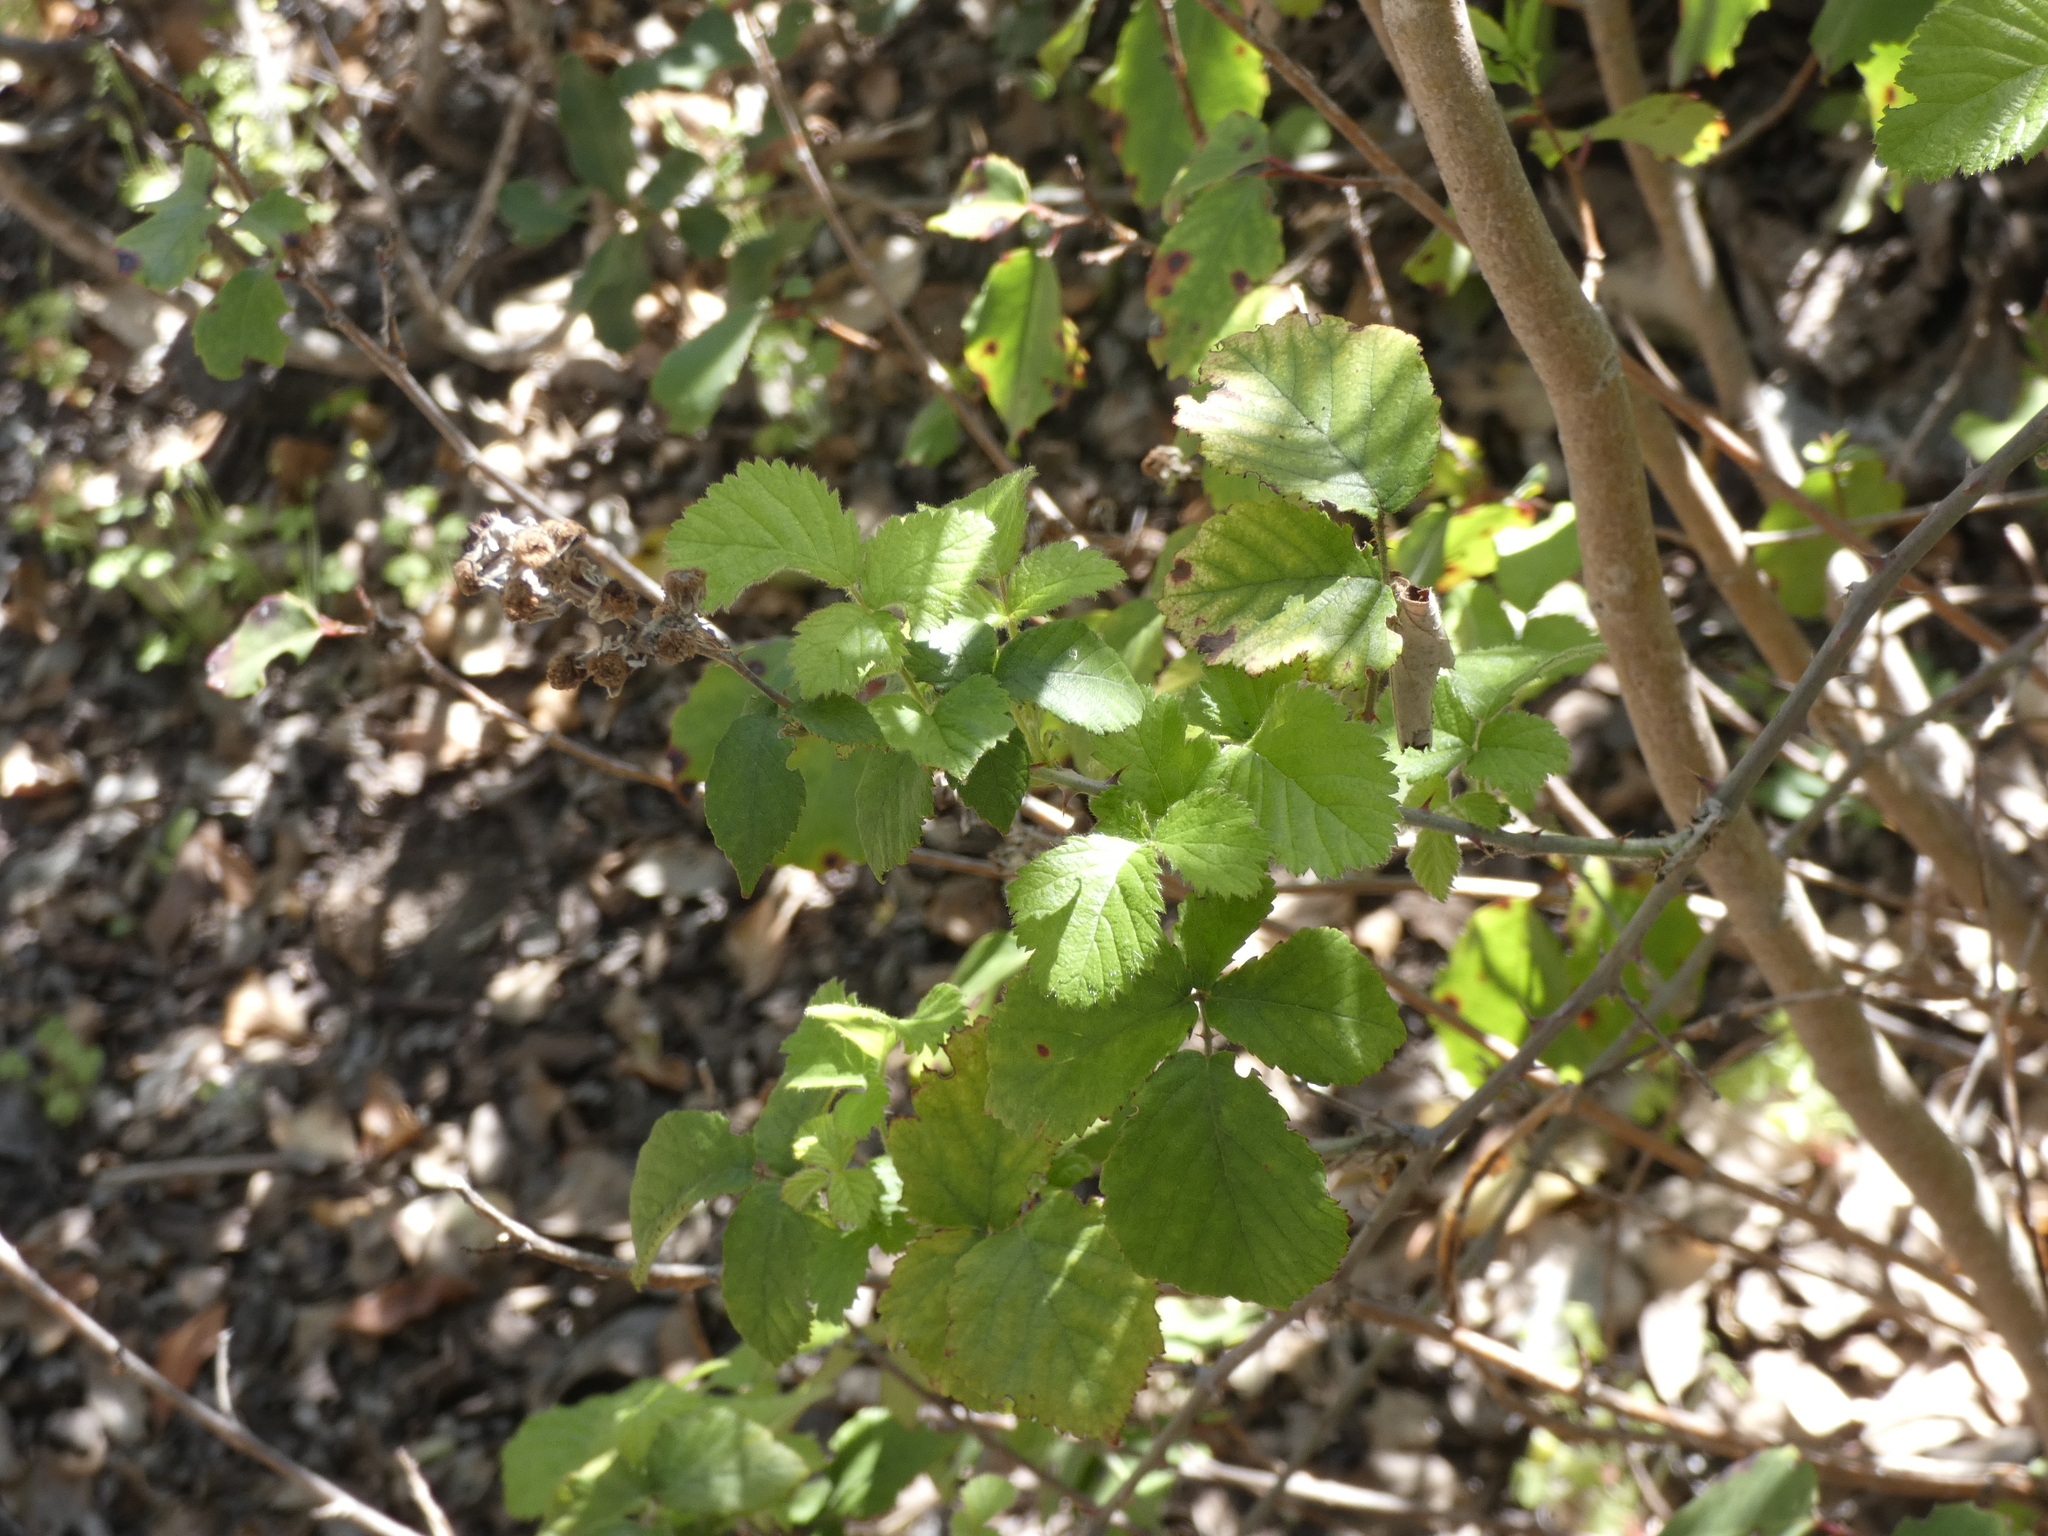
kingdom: Plantae
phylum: Tracheophyta
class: Magnoliopsida
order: Rosales
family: Rosaceae
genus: Rubus
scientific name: Rubus ulmifolius
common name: Elmleaf blackberry
